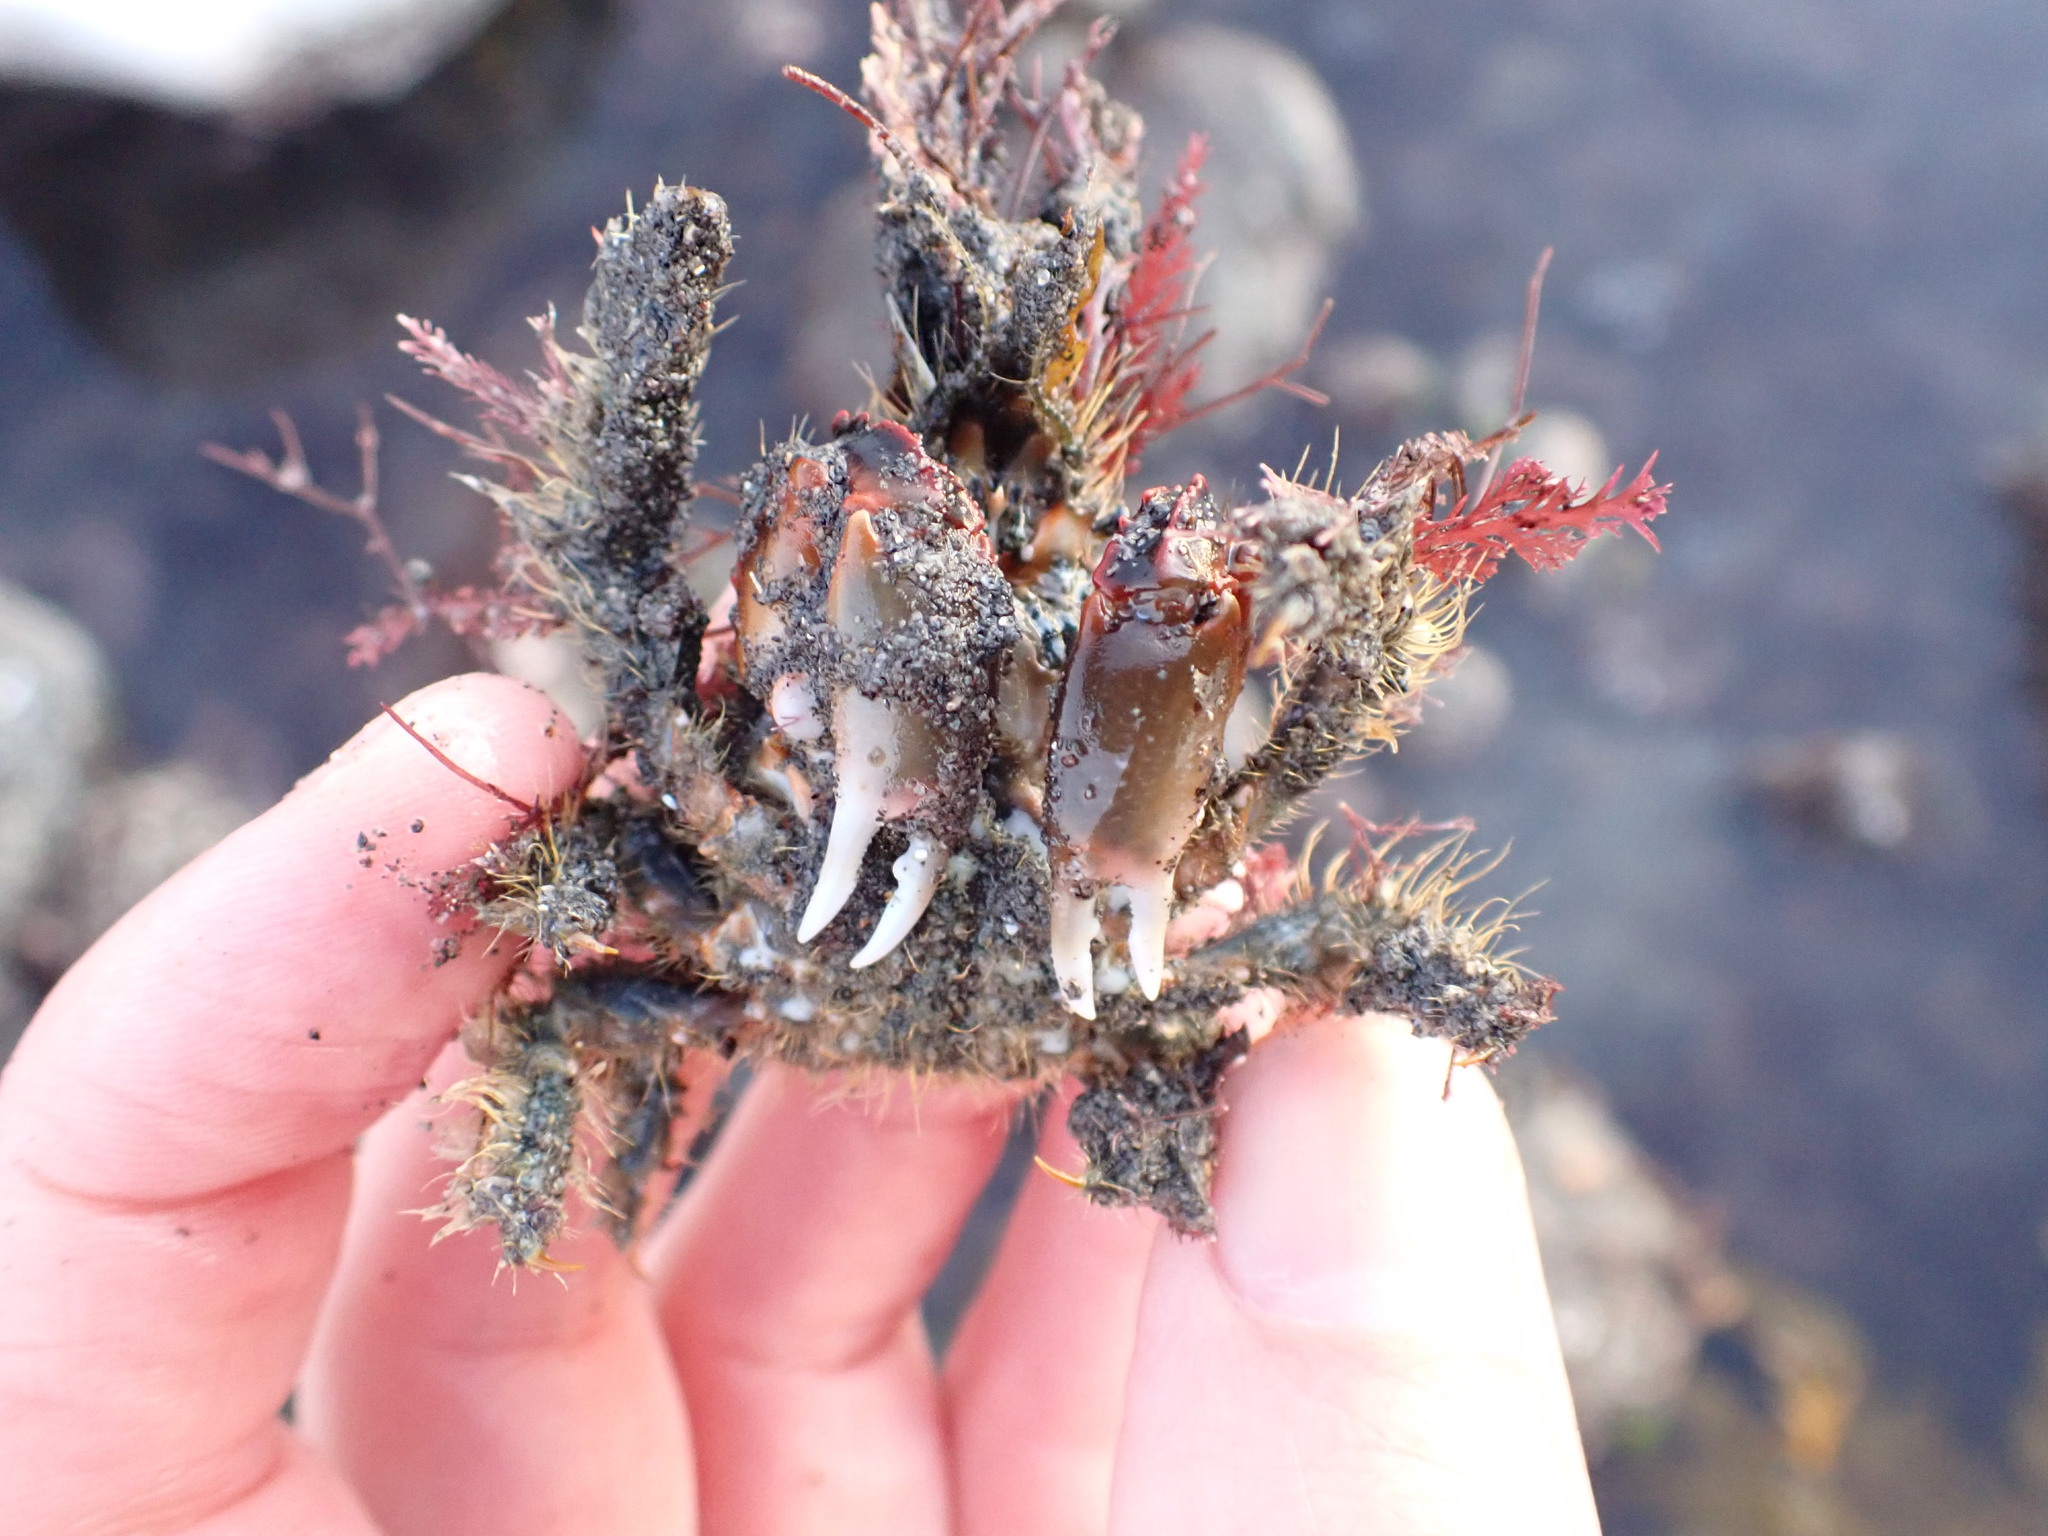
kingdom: Animalia
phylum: Arthropoda
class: Malacostraca
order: Decapoda
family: Majidae
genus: Notomithrax
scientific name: Notomithrax ursus
